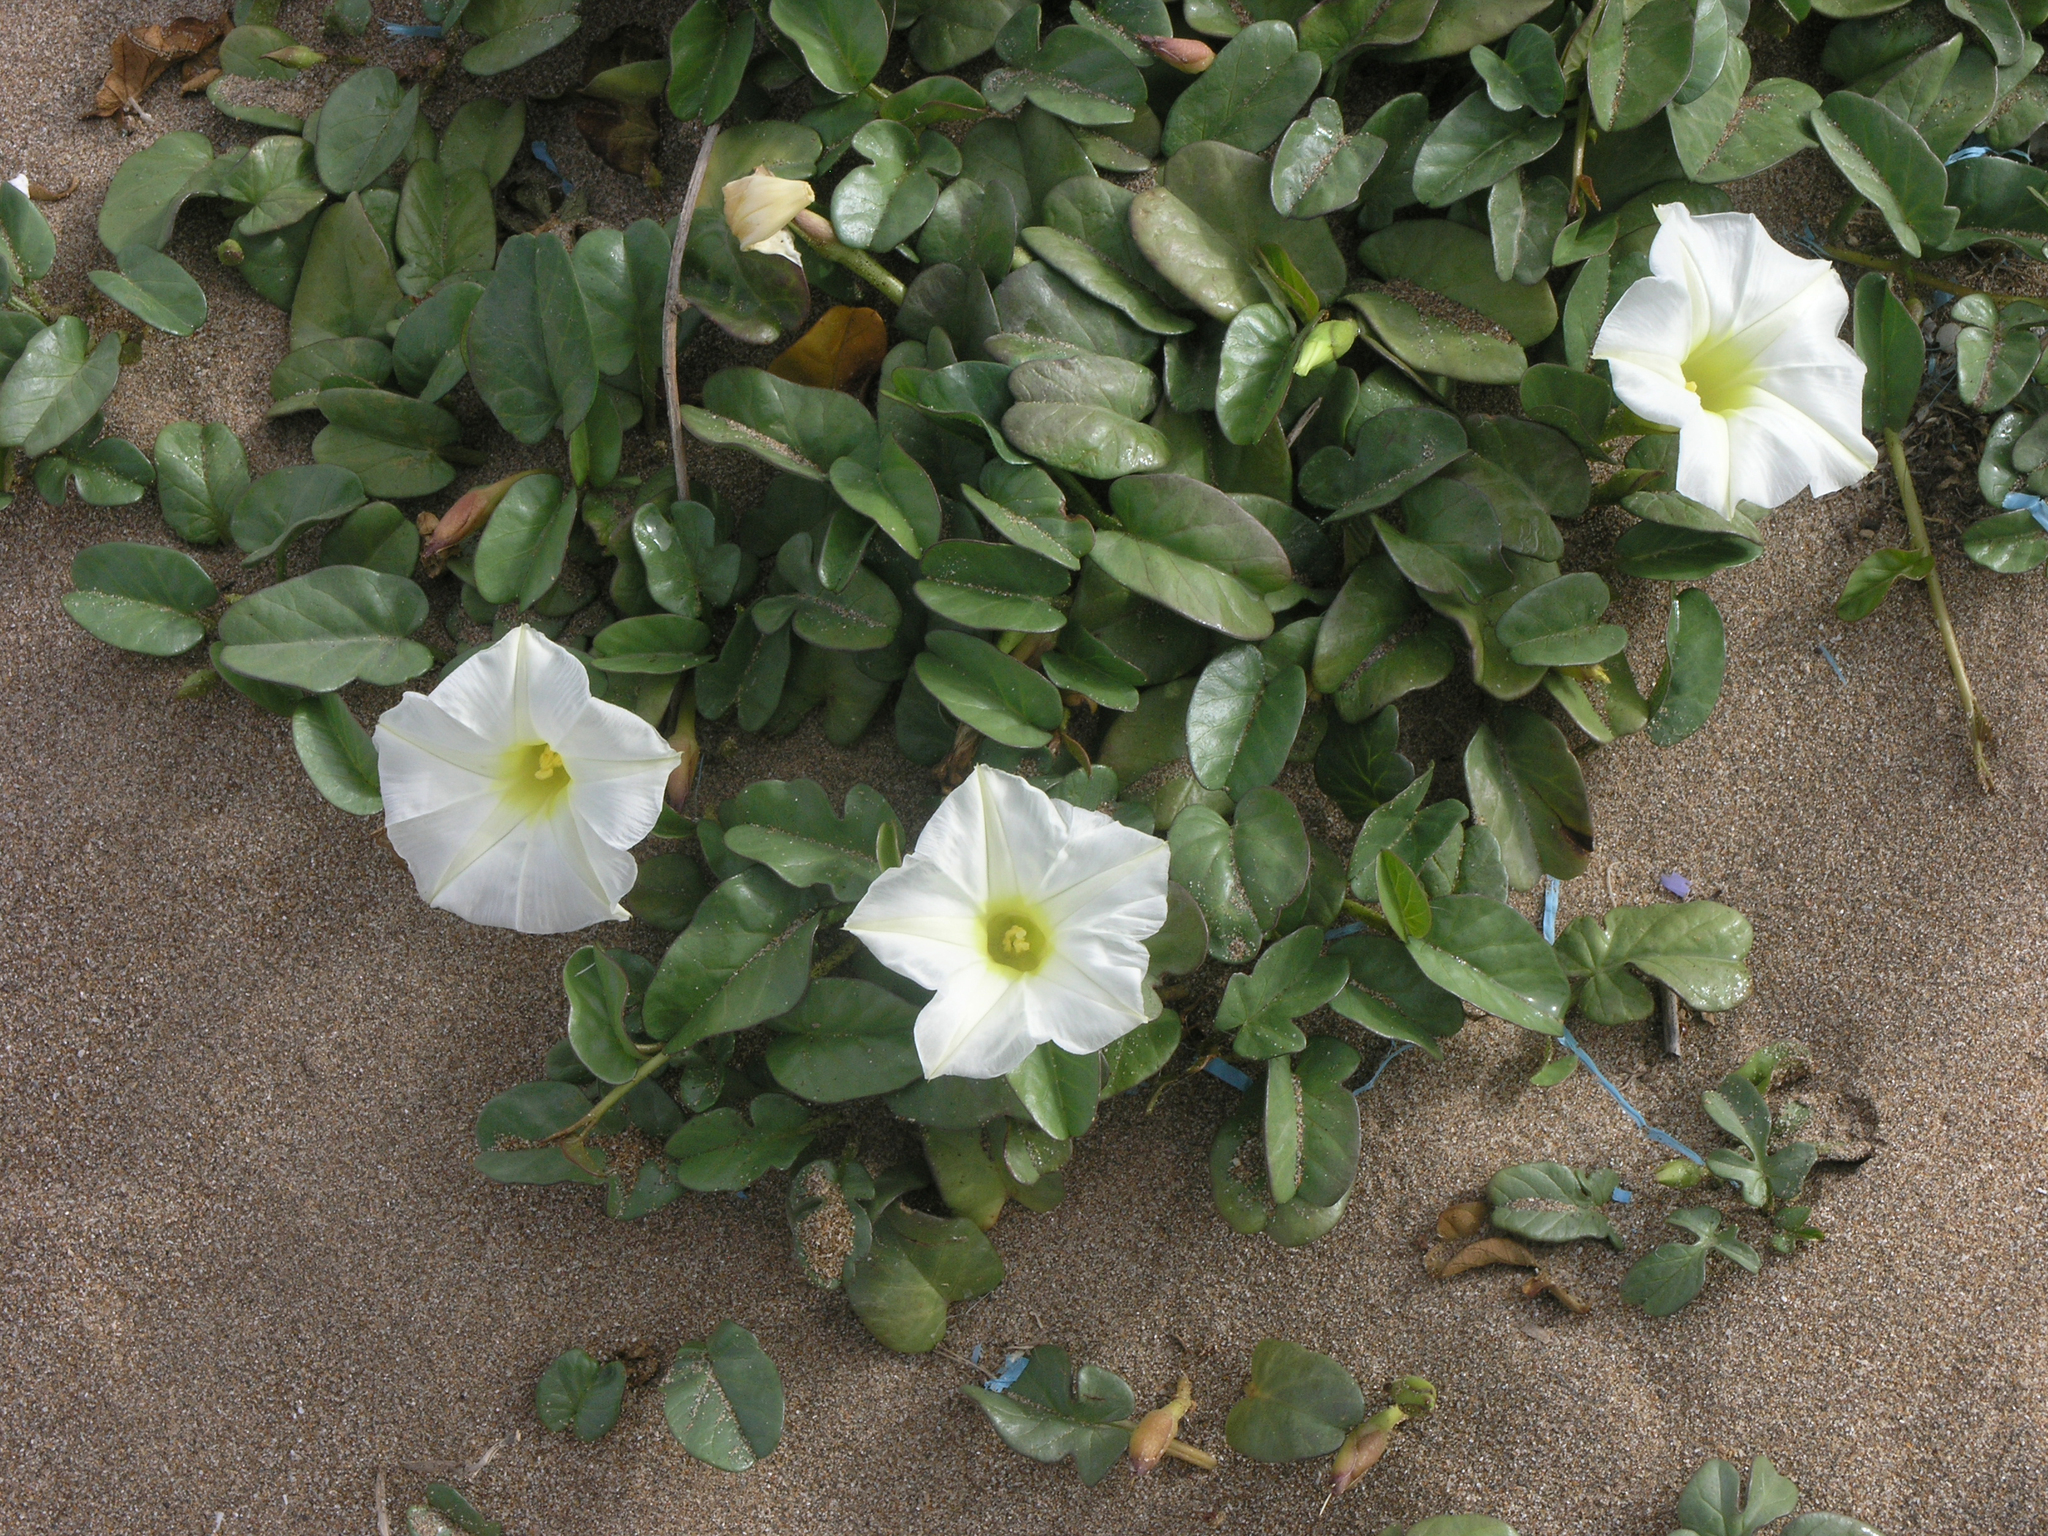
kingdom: Plantae
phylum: Tracheophyta
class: Magnoliopsida
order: Solanales
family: Convolvulaceae
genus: Ipomoea
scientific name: Ipomoea imperati
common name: Fiddle-leaf morning-glory
